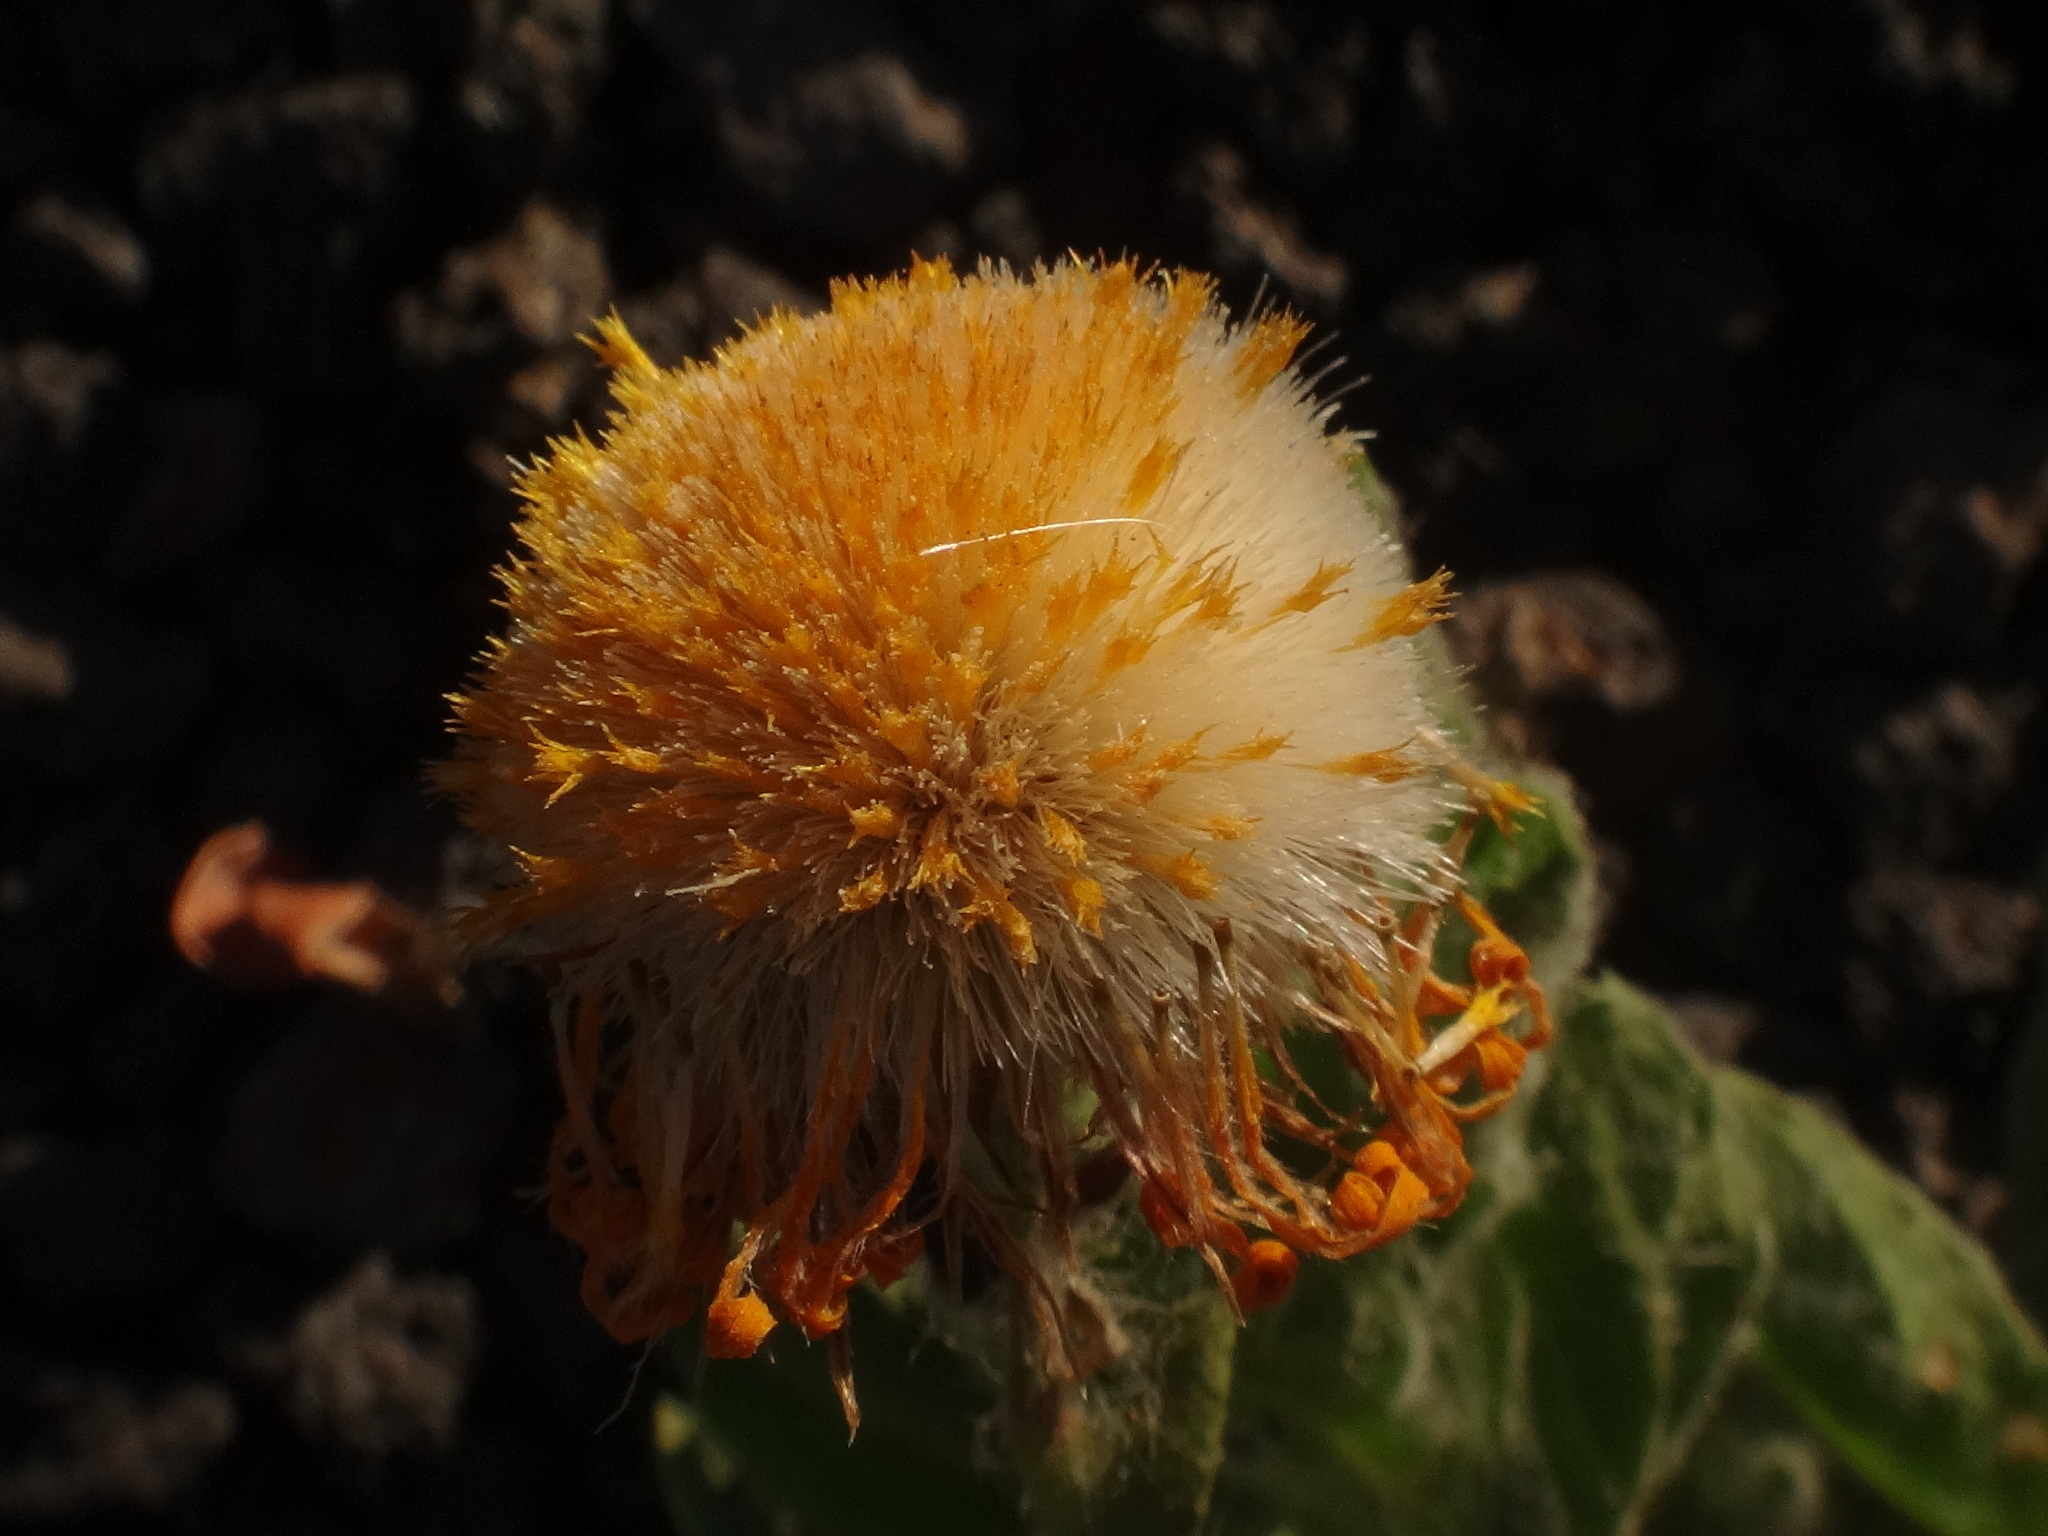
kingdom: Plantae
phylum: Tracheophyta
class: Magnoliopsida
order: Asterales
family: Asteraceae
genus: Pulicaria
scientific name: Pulicaria canariensis
